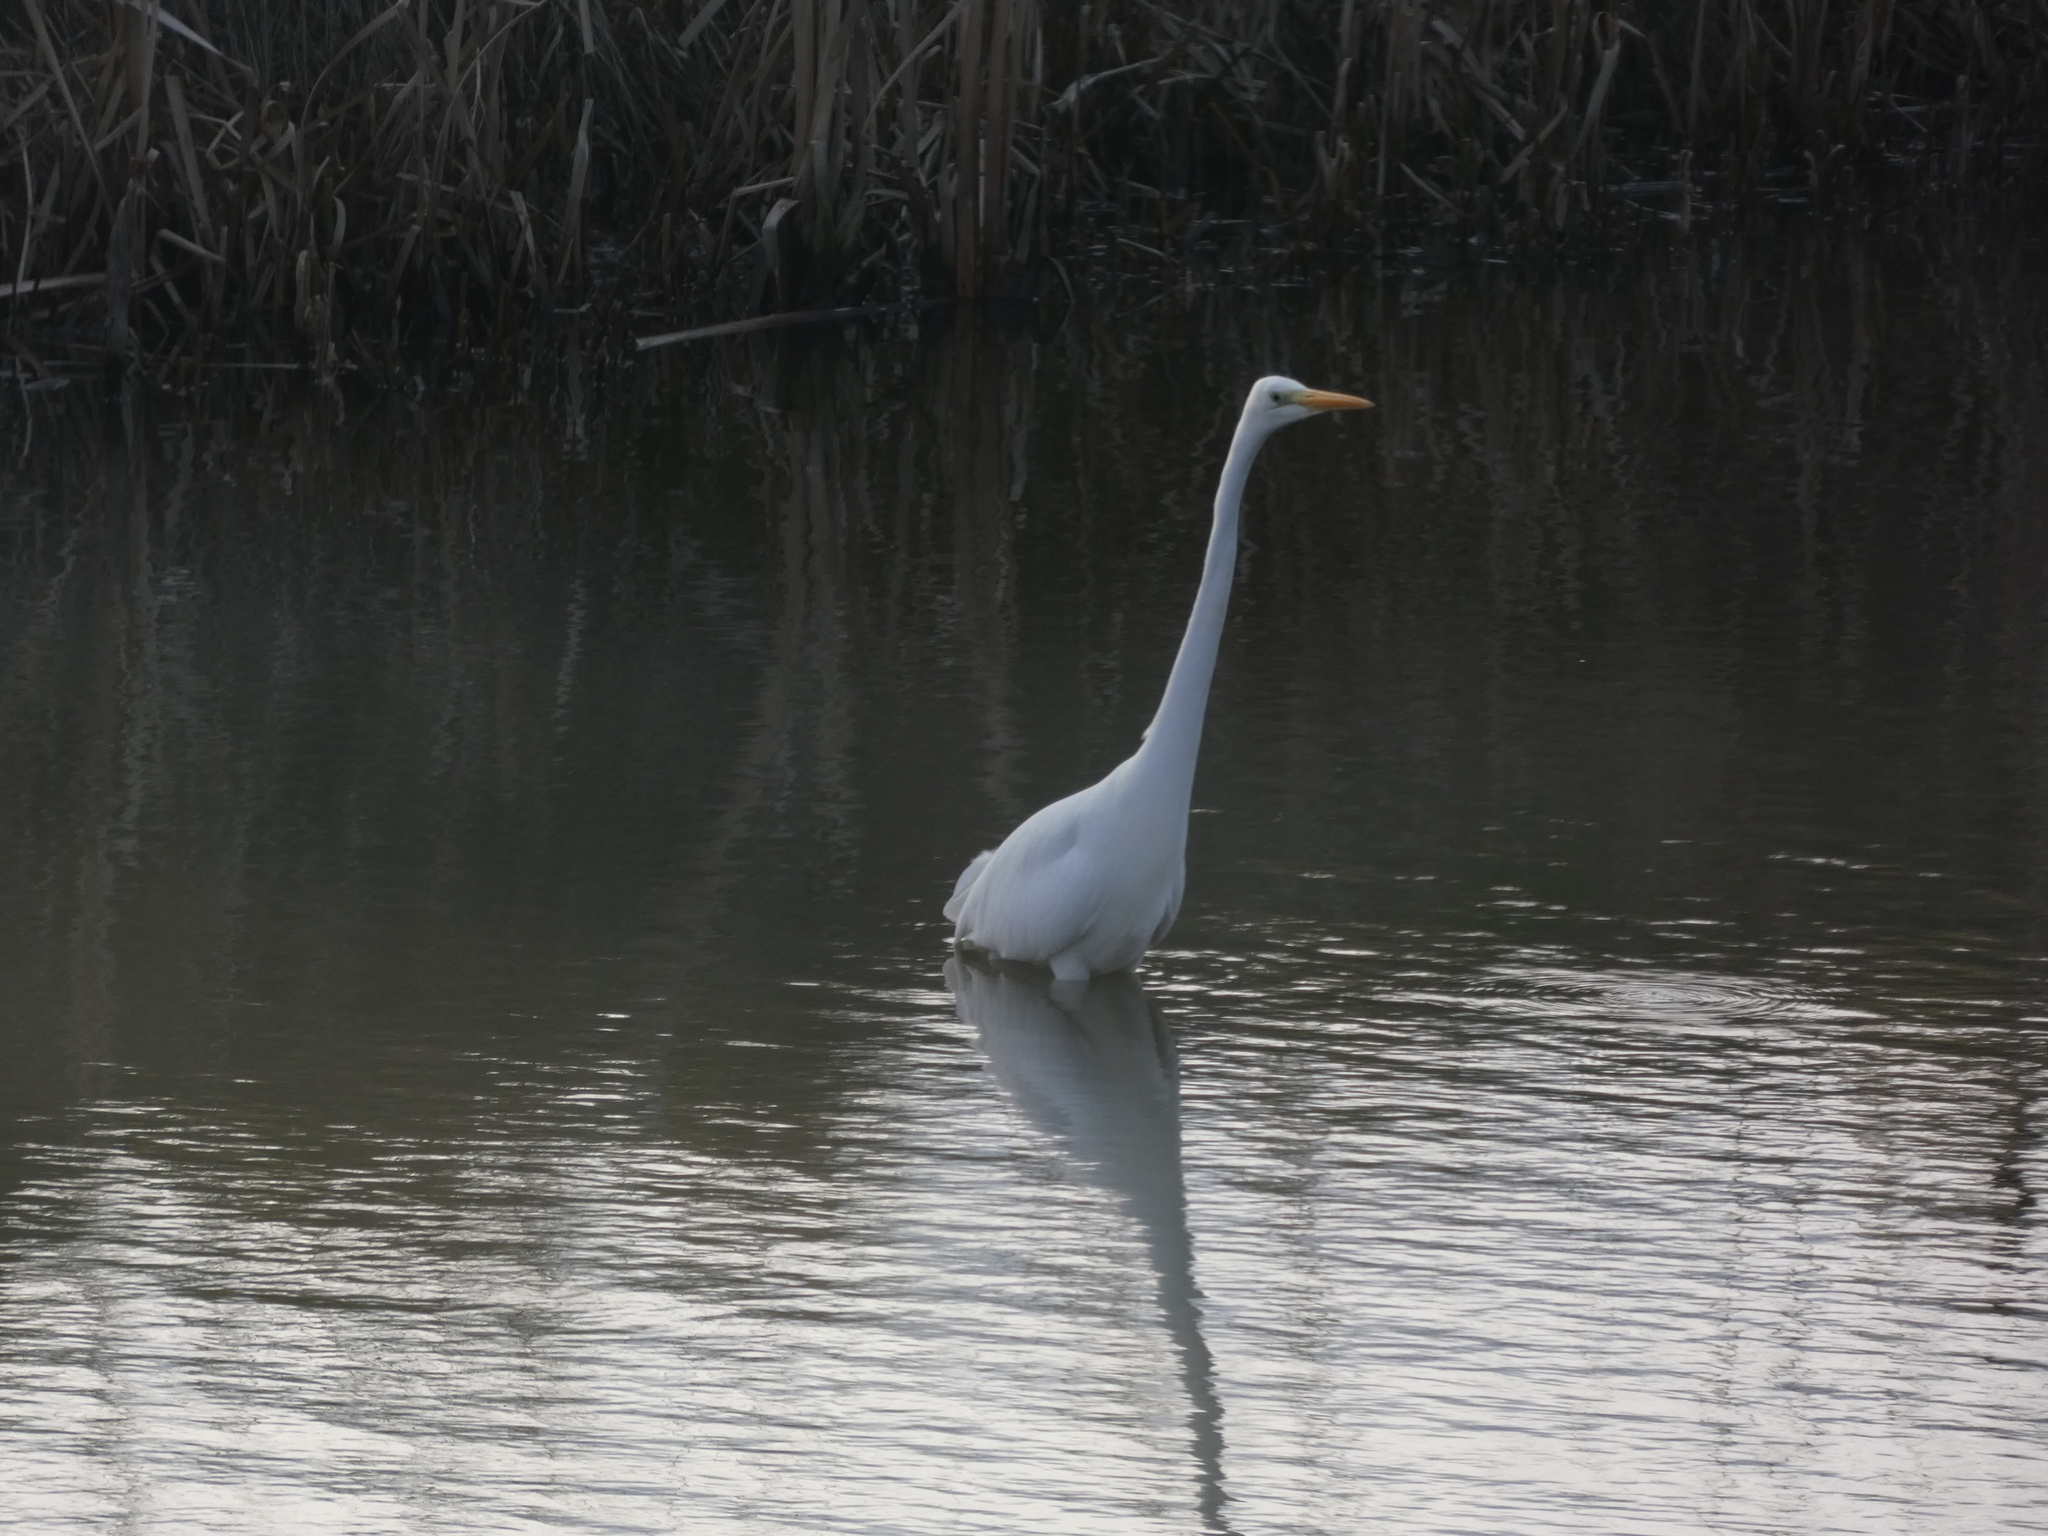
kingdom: Animalia
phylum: Chordata
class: Aves
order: Pelecaniformes
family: Ardeidae
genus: Ardea
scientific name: Ardea alba
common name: Great egret
